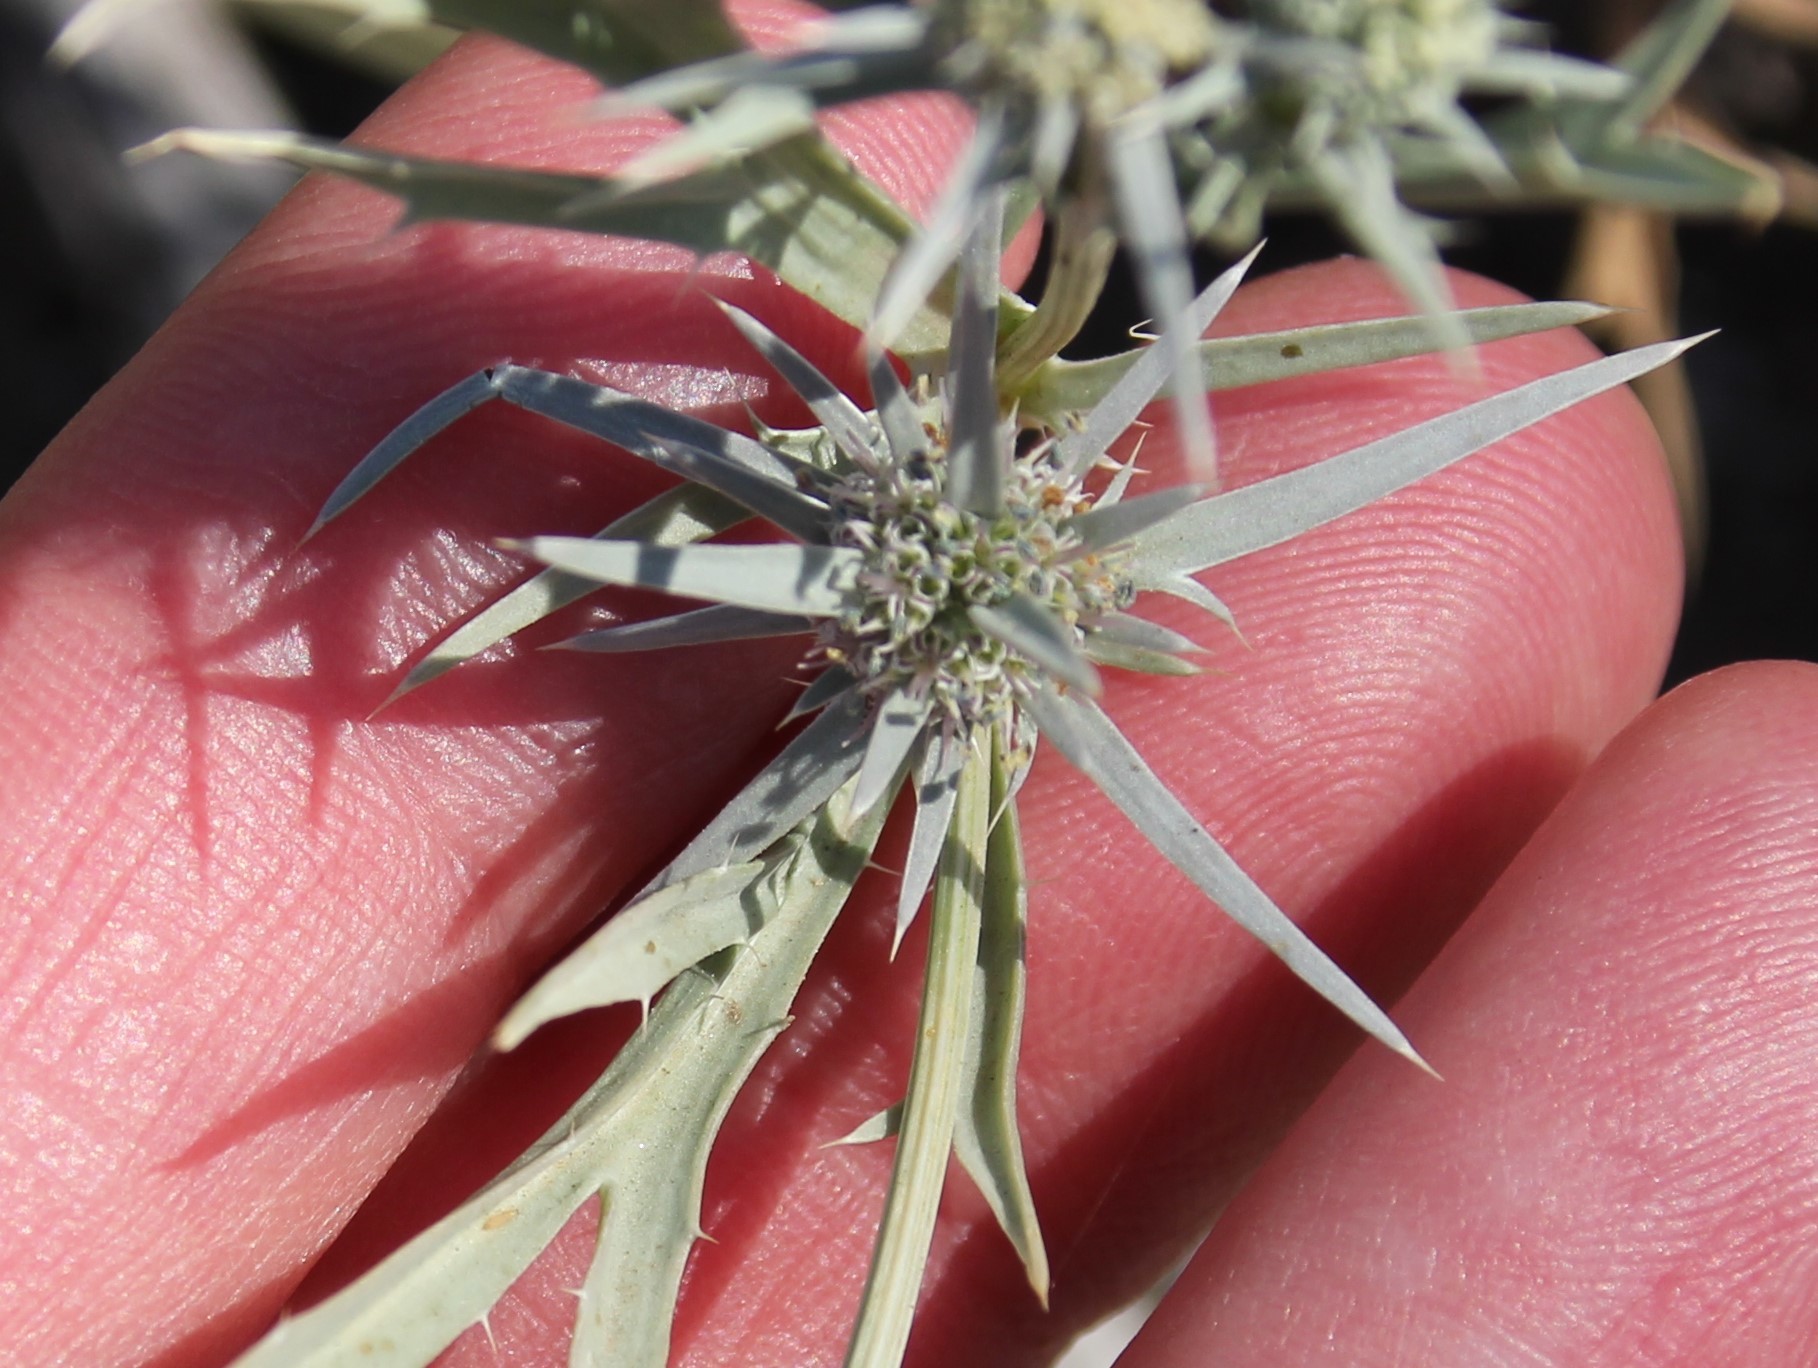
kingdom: Plantae
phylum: Tracheophyta
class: Magnoliopsida
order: Apiales
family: Apiaceae
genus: Eryngium
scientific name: Eryngium aristulatum
